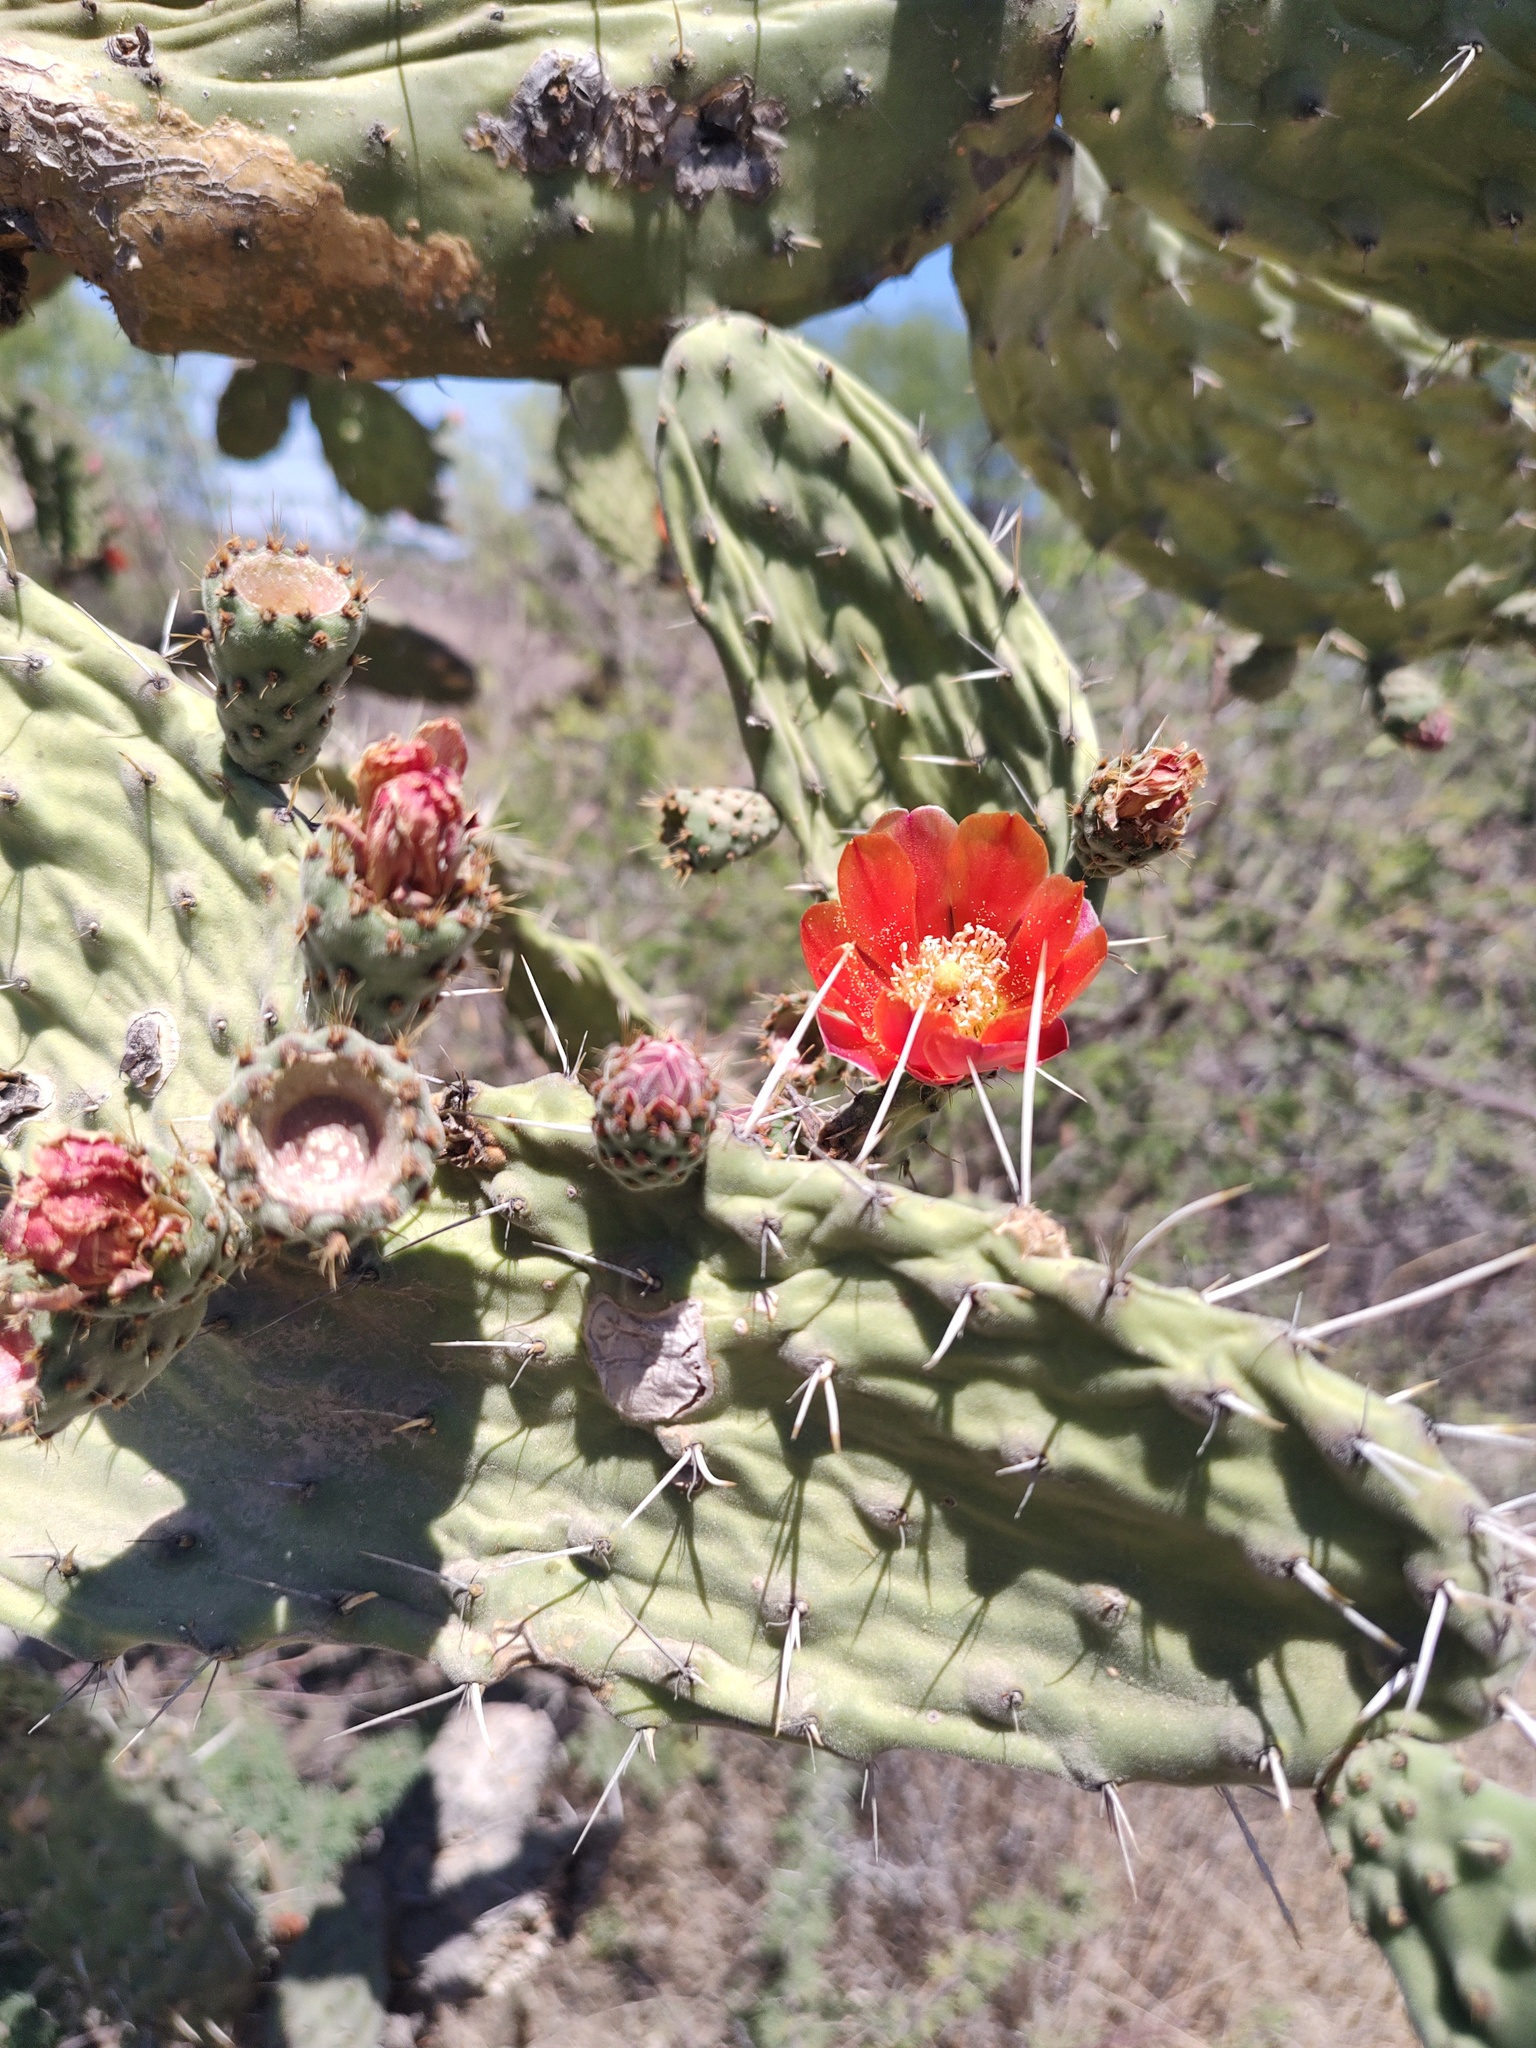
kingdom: Plantae
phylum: Tracheophyta
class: Magnoliopsida
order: Caryophyllales
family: Cactaceae
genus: Opuntia
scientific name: Opuntia tomentosa
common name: Woollyjoint pricklypear
